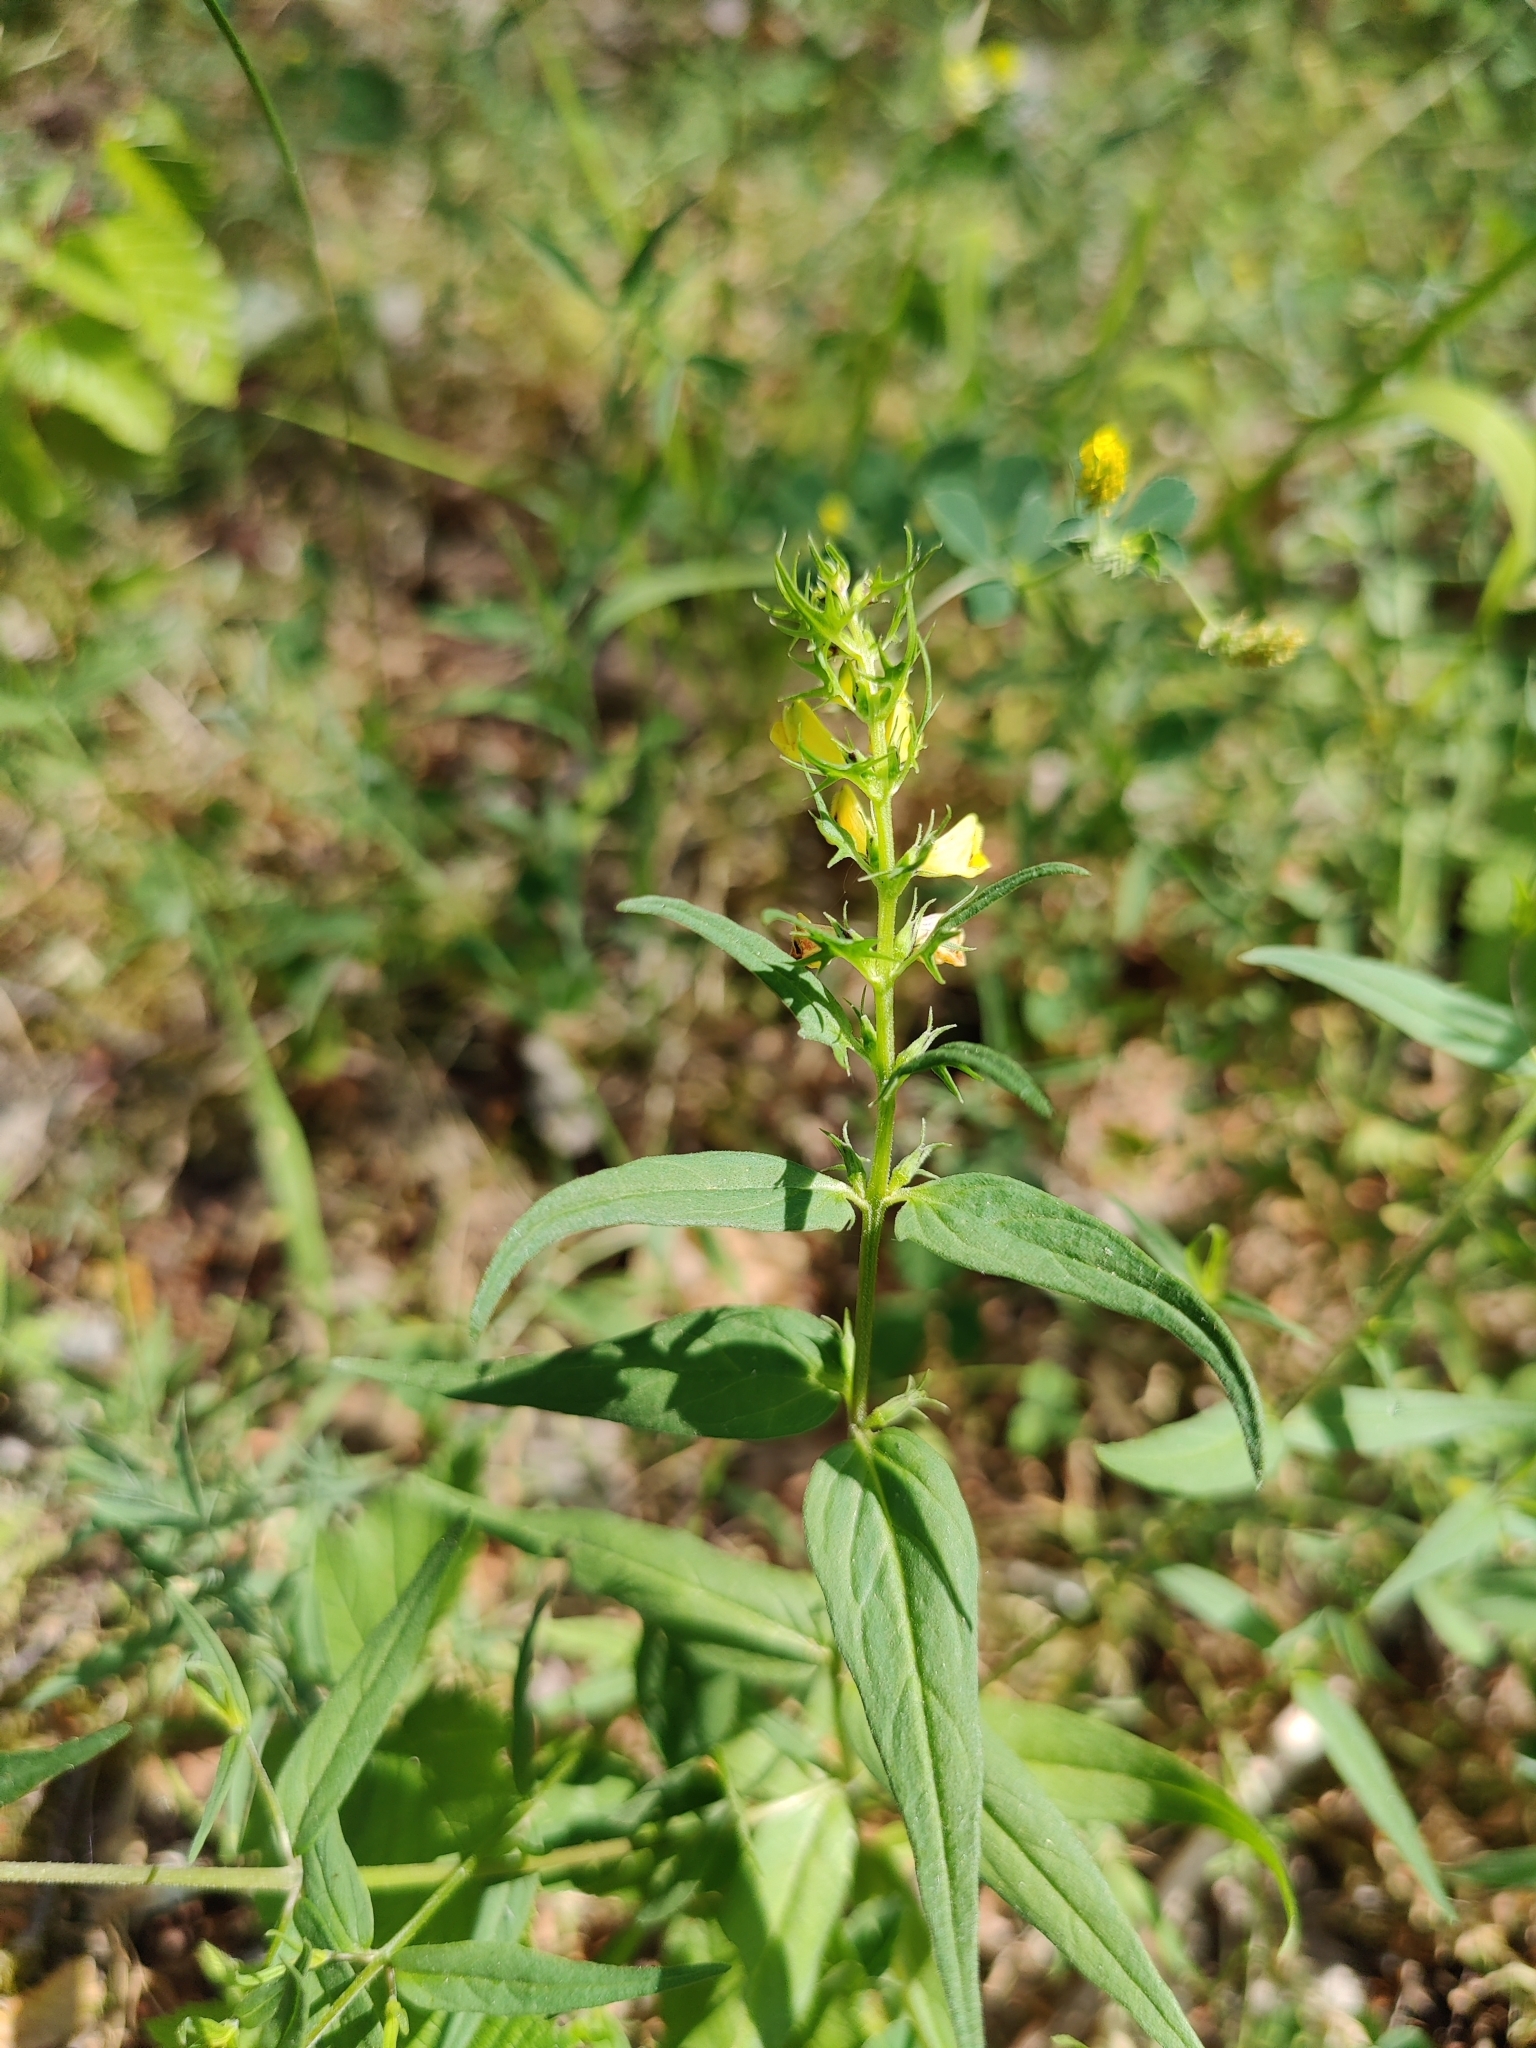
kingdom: Plantae
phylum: Tracheophyta
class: Magnoliopsida
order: Lamiales
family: Orobanchaceae
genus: Melampyrum
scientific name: Melampyrum pratense
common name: Common cow-wheat
